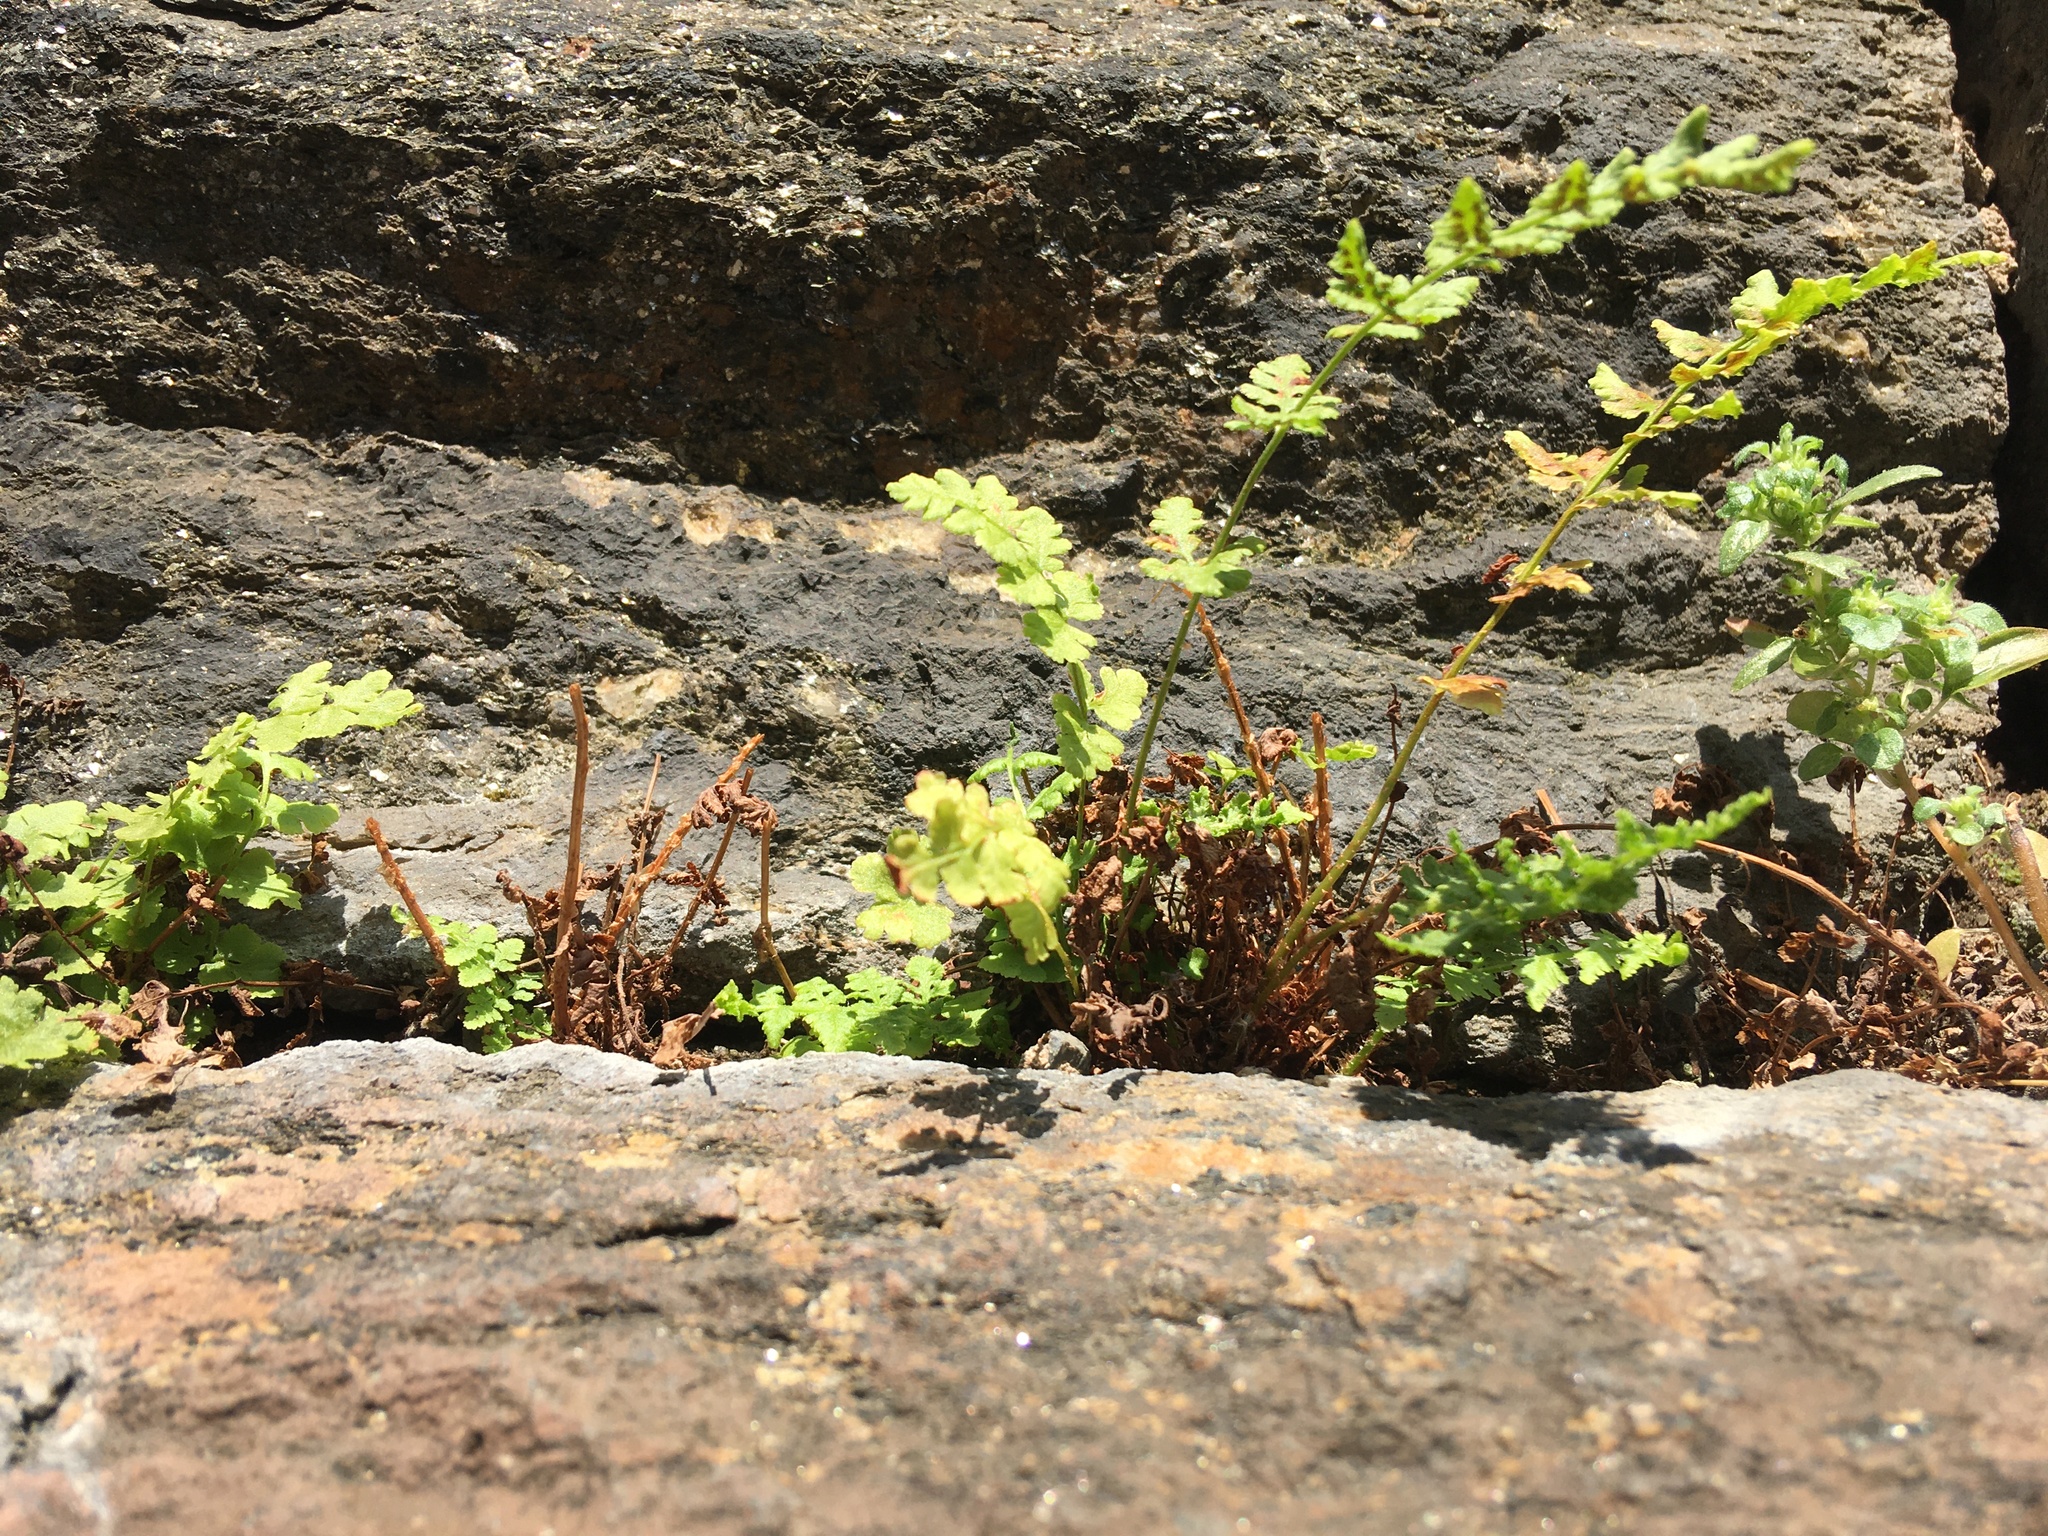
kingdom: Plantae
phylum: Tracheophyta
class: Polypodiopsida
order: Polypodiales
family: Woodsiaceae
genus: Physematium
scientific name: Physematium obtusum
